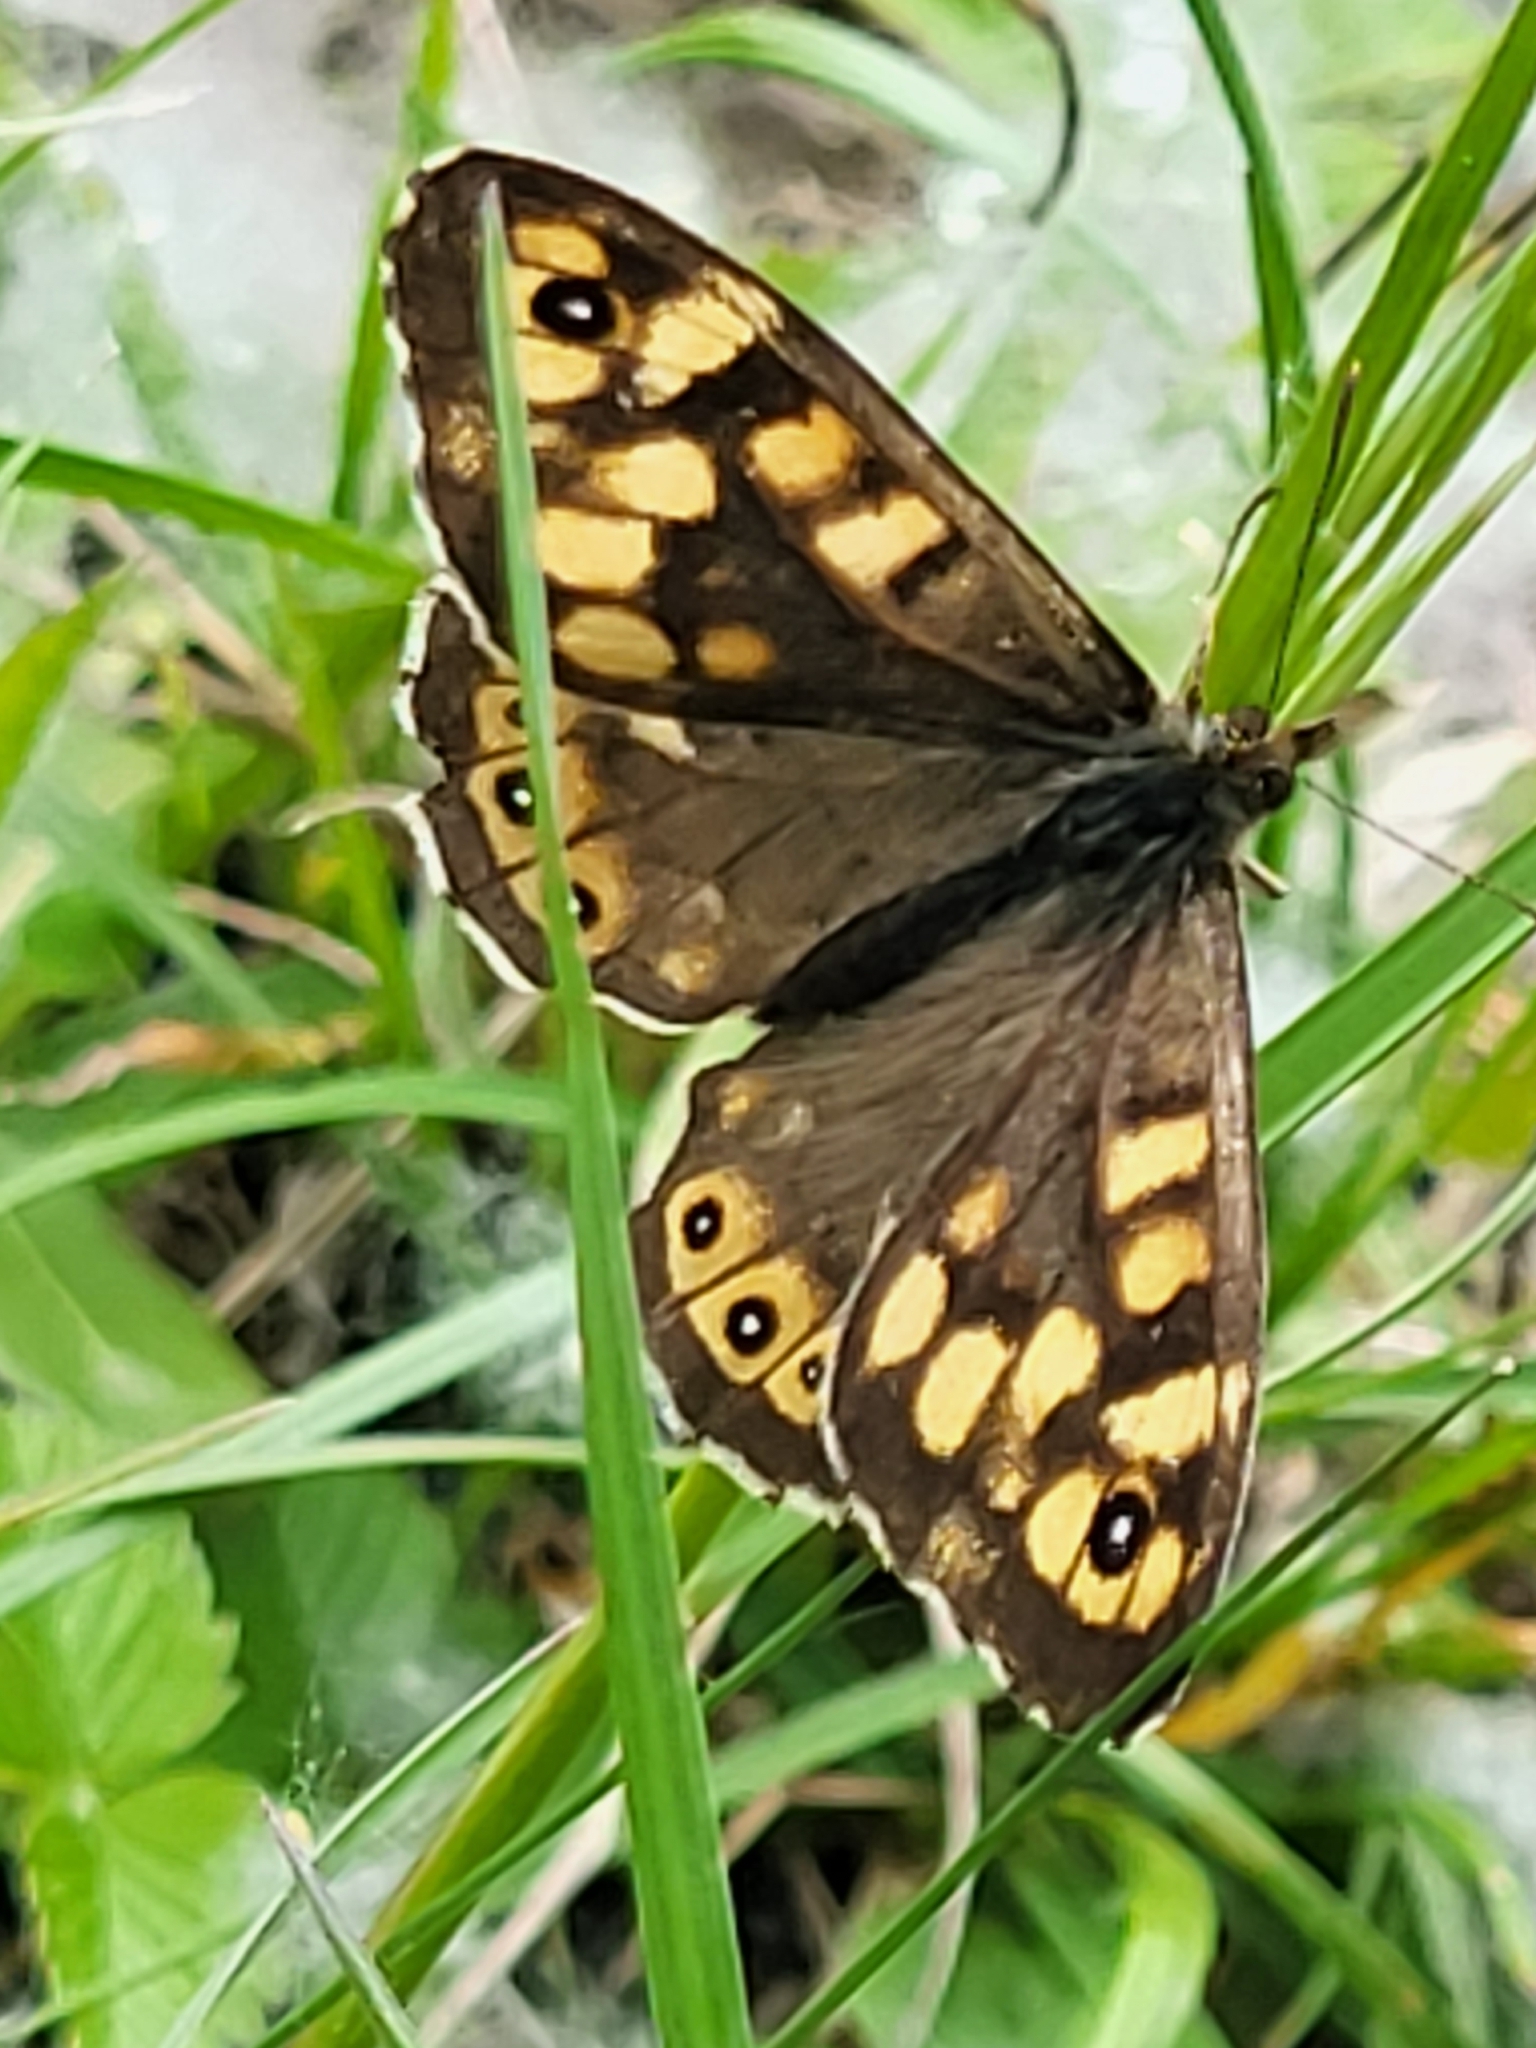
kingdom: Animalia
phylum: Arthropoda
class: Insecta
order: Lepidoptera
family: Nymphalidae
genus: Pararge
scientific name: Pararge aegeria
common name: Speckled wood
